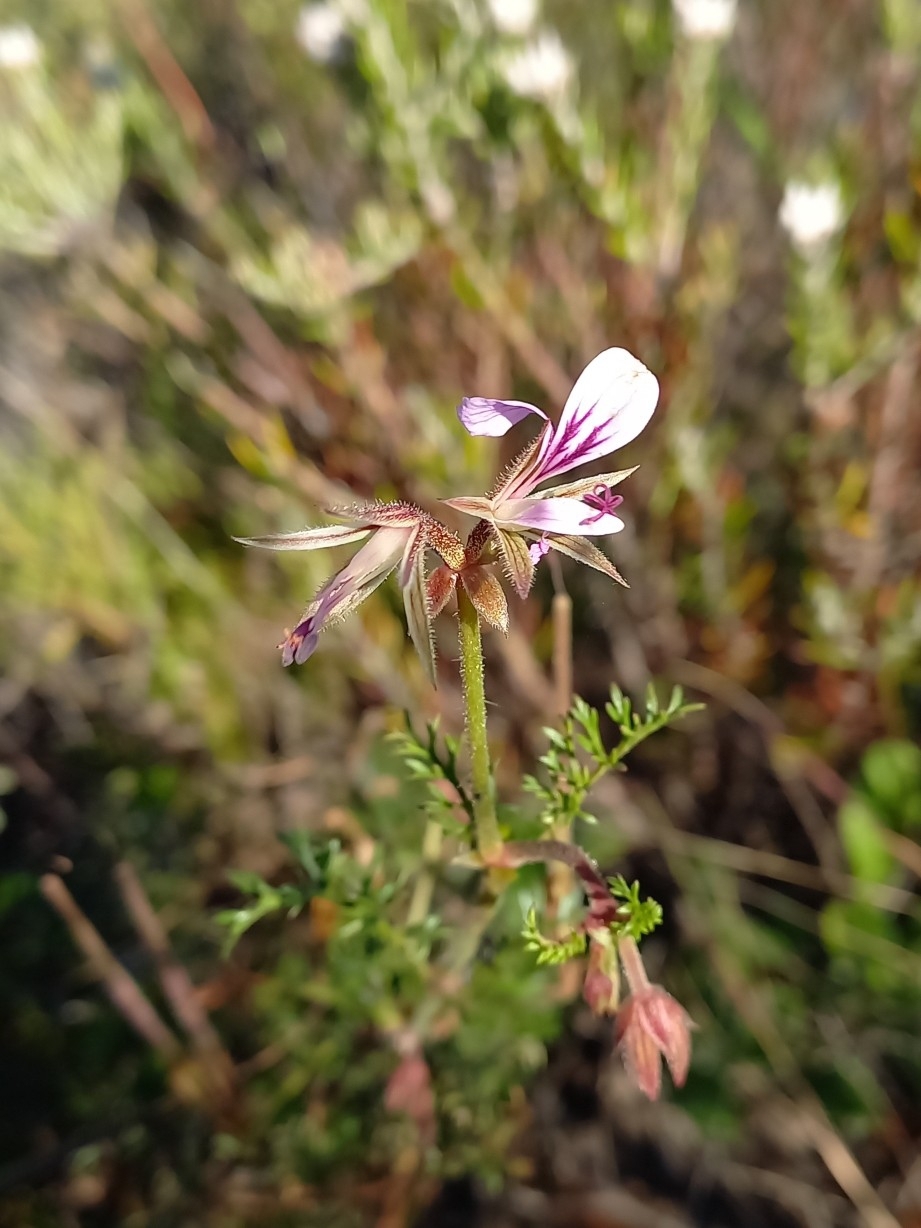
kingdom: Plantae
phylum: Tracheophyta
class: Magnoliopsida
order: Geraniales
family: Geraniaceae
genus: Pelargonium
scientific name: Pelargonium myrrhifolium
